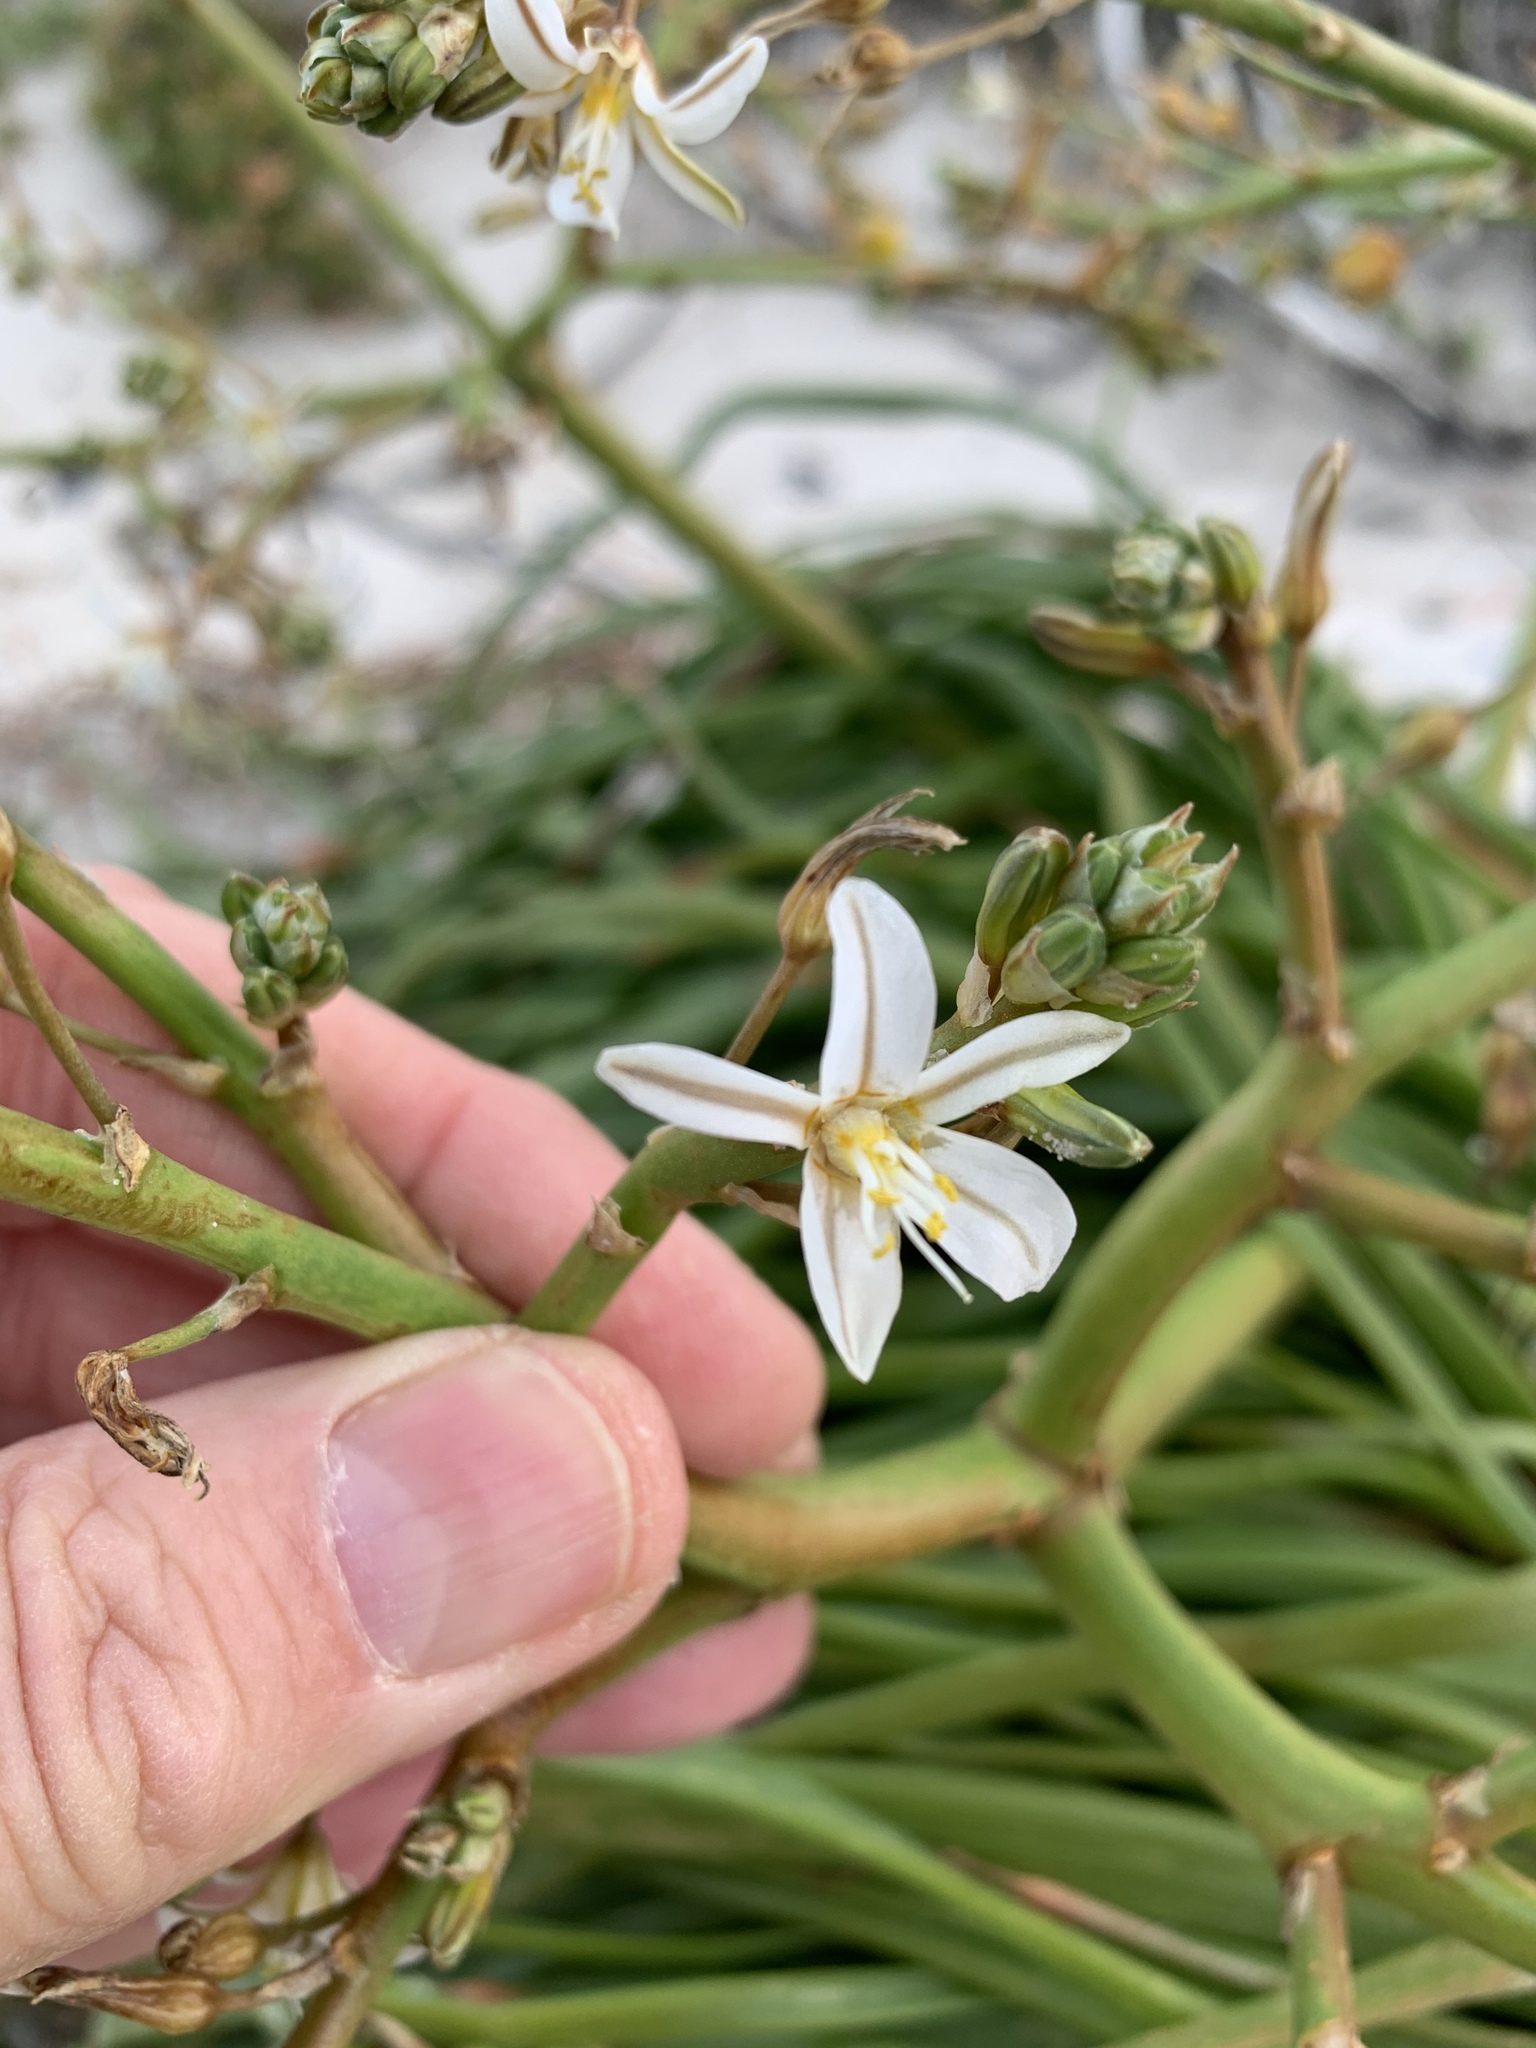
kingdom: Plantae
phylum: Tracheophyta
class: Liliopsida
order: Asparagales
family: Asphodelaceae
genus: Trachyandra
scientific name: Trachyandra divaricata
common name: Dune onionweed
